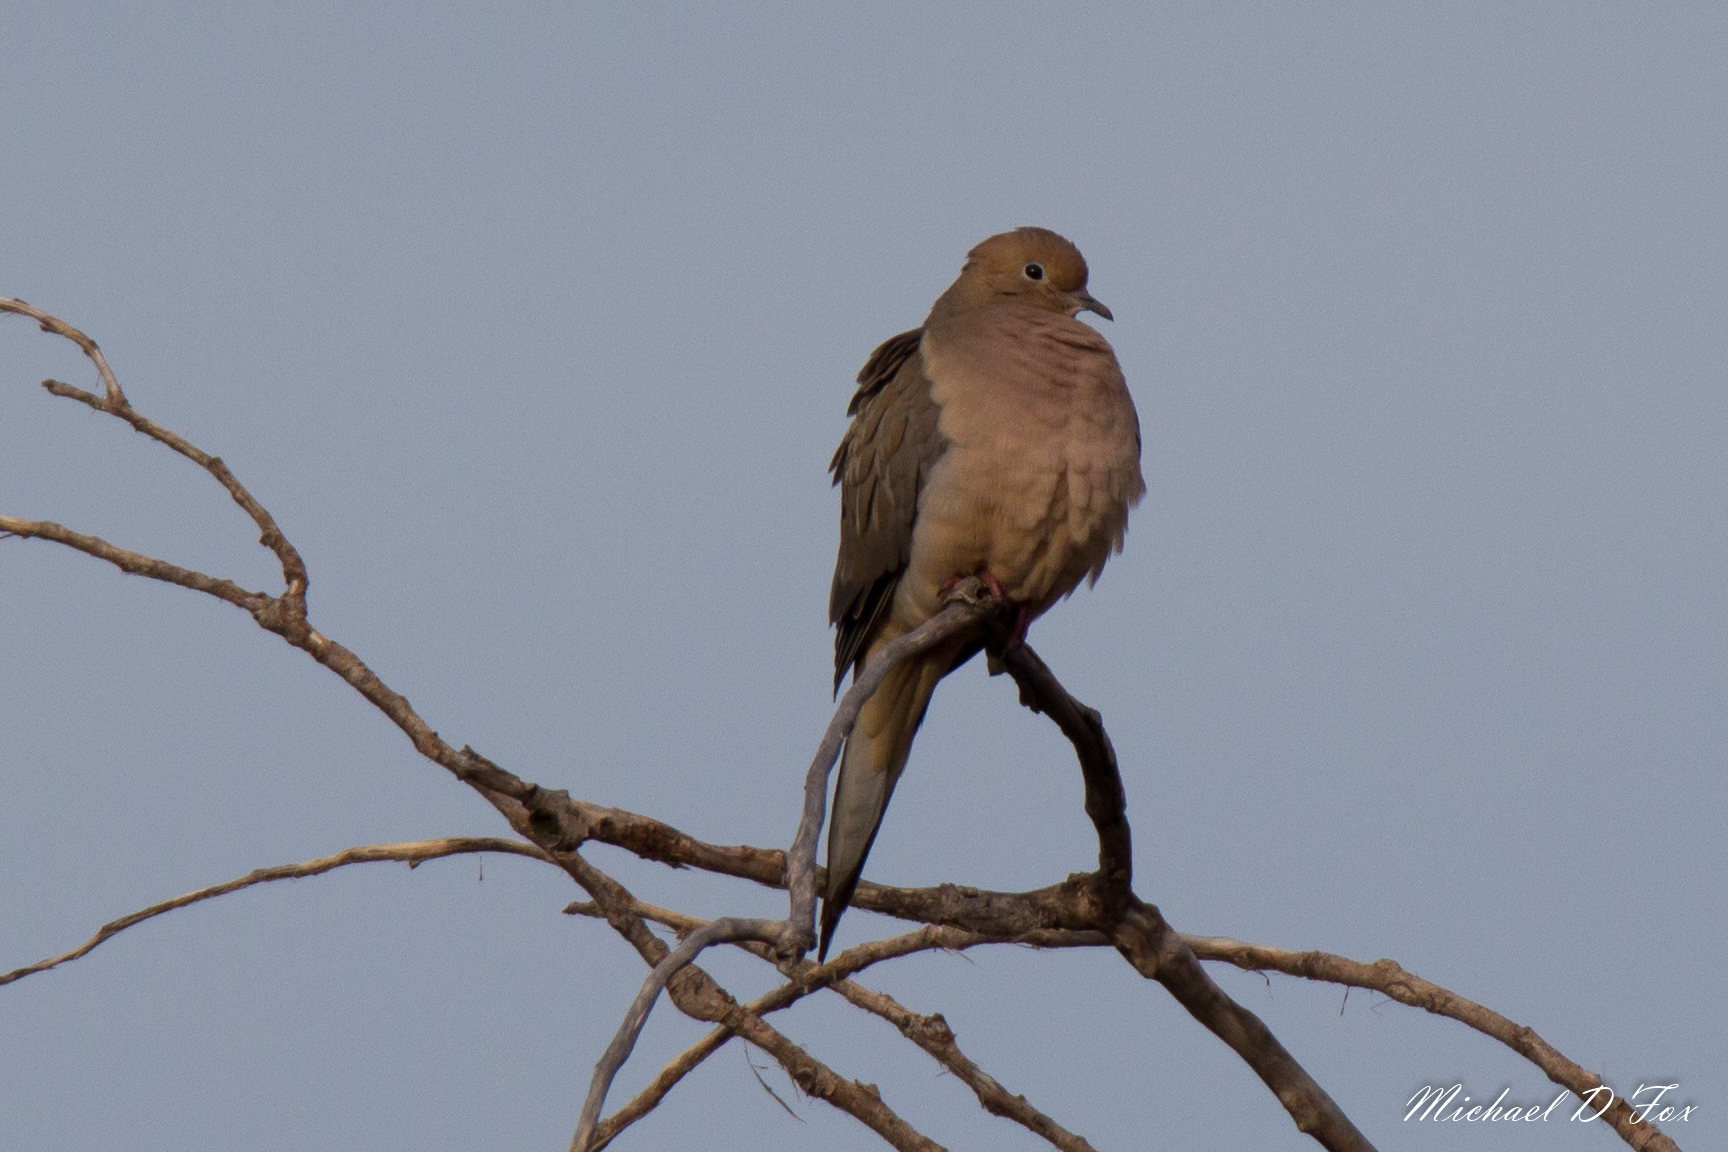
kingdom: Animalia
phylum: Chordata
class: Aves
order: Columbiformes
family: Columbidae
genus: Zenaida
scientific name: Zenaida macroura
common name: Mourning dove
